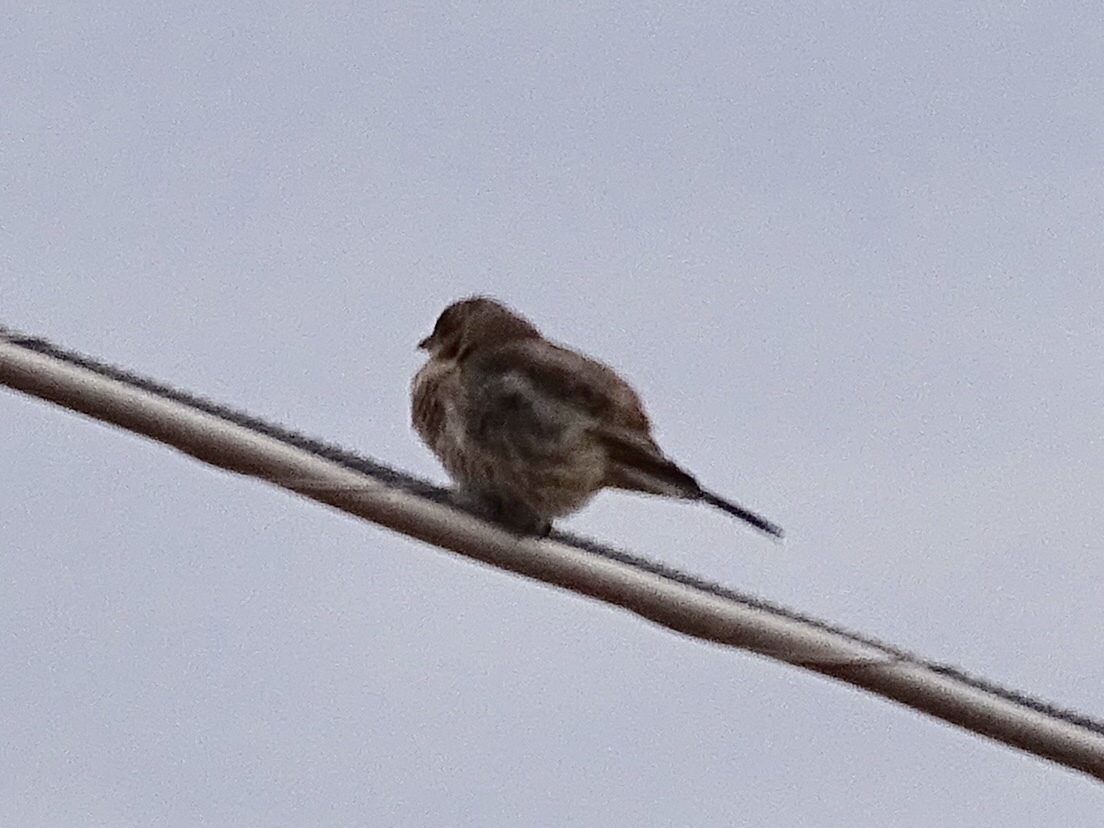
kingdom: Animalia
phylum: Chordata
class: Aves
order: Passeriformes
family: Fringillidae
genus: Haemorhous
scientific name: Haemorhous mexicanus
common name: House finch
